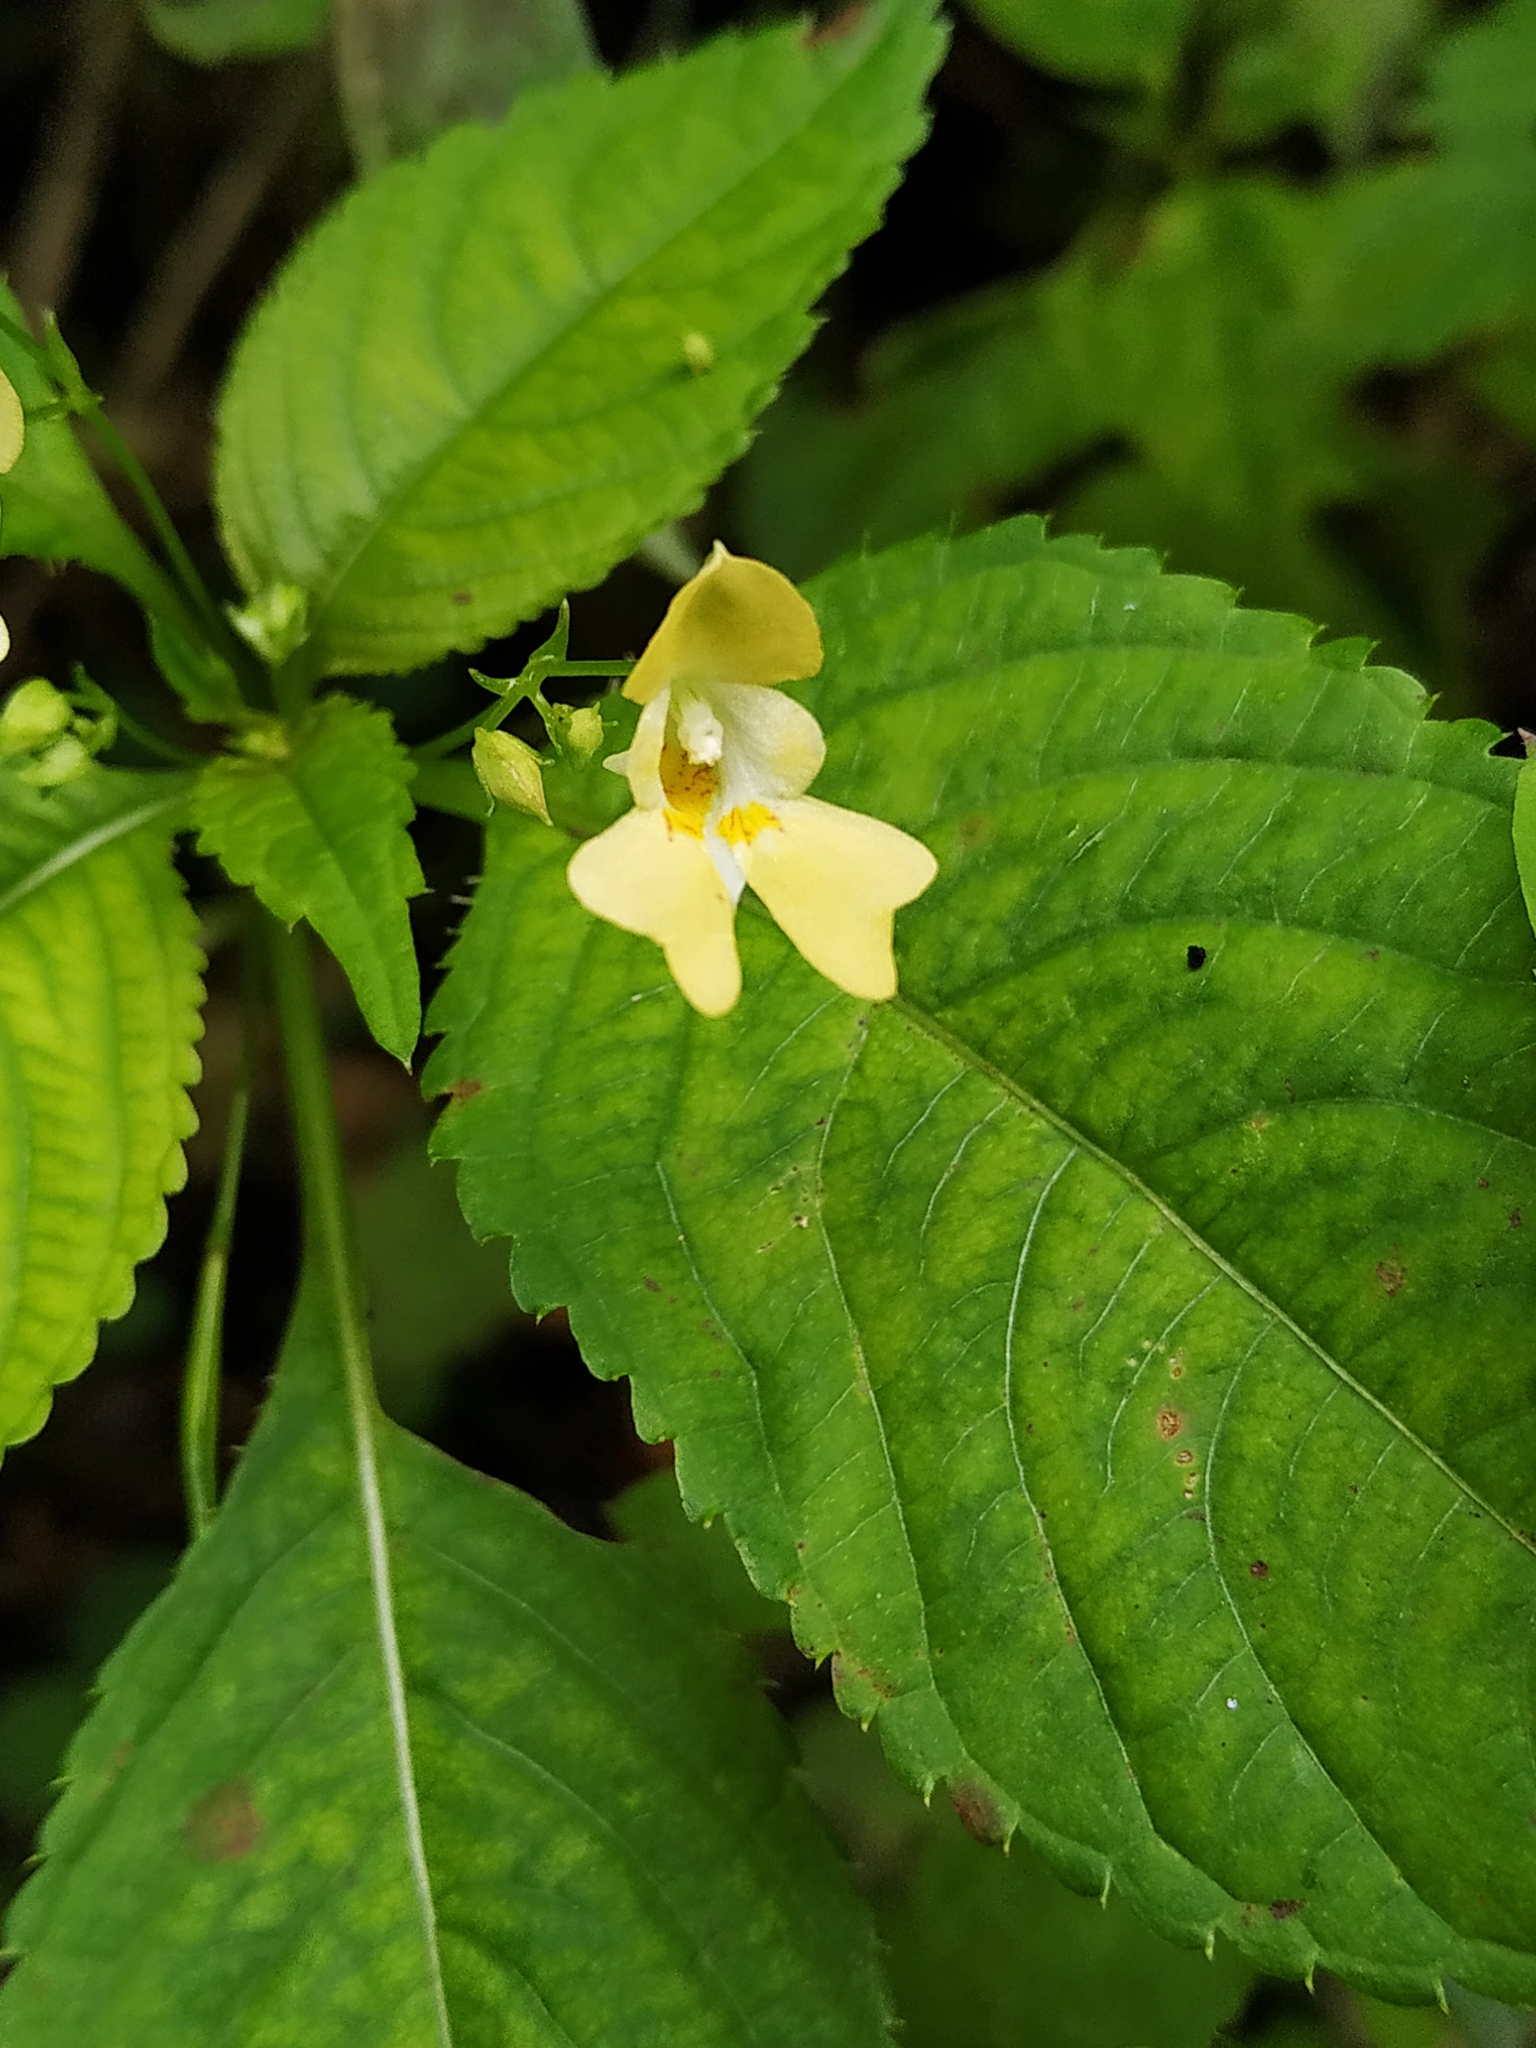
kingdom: Plantae
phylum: Tracheophyta
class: Magnoliopsida
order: Ericales
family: Balsaminaceae
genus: Impatiens
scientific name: Impatiens parviflora
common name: Small balsam
